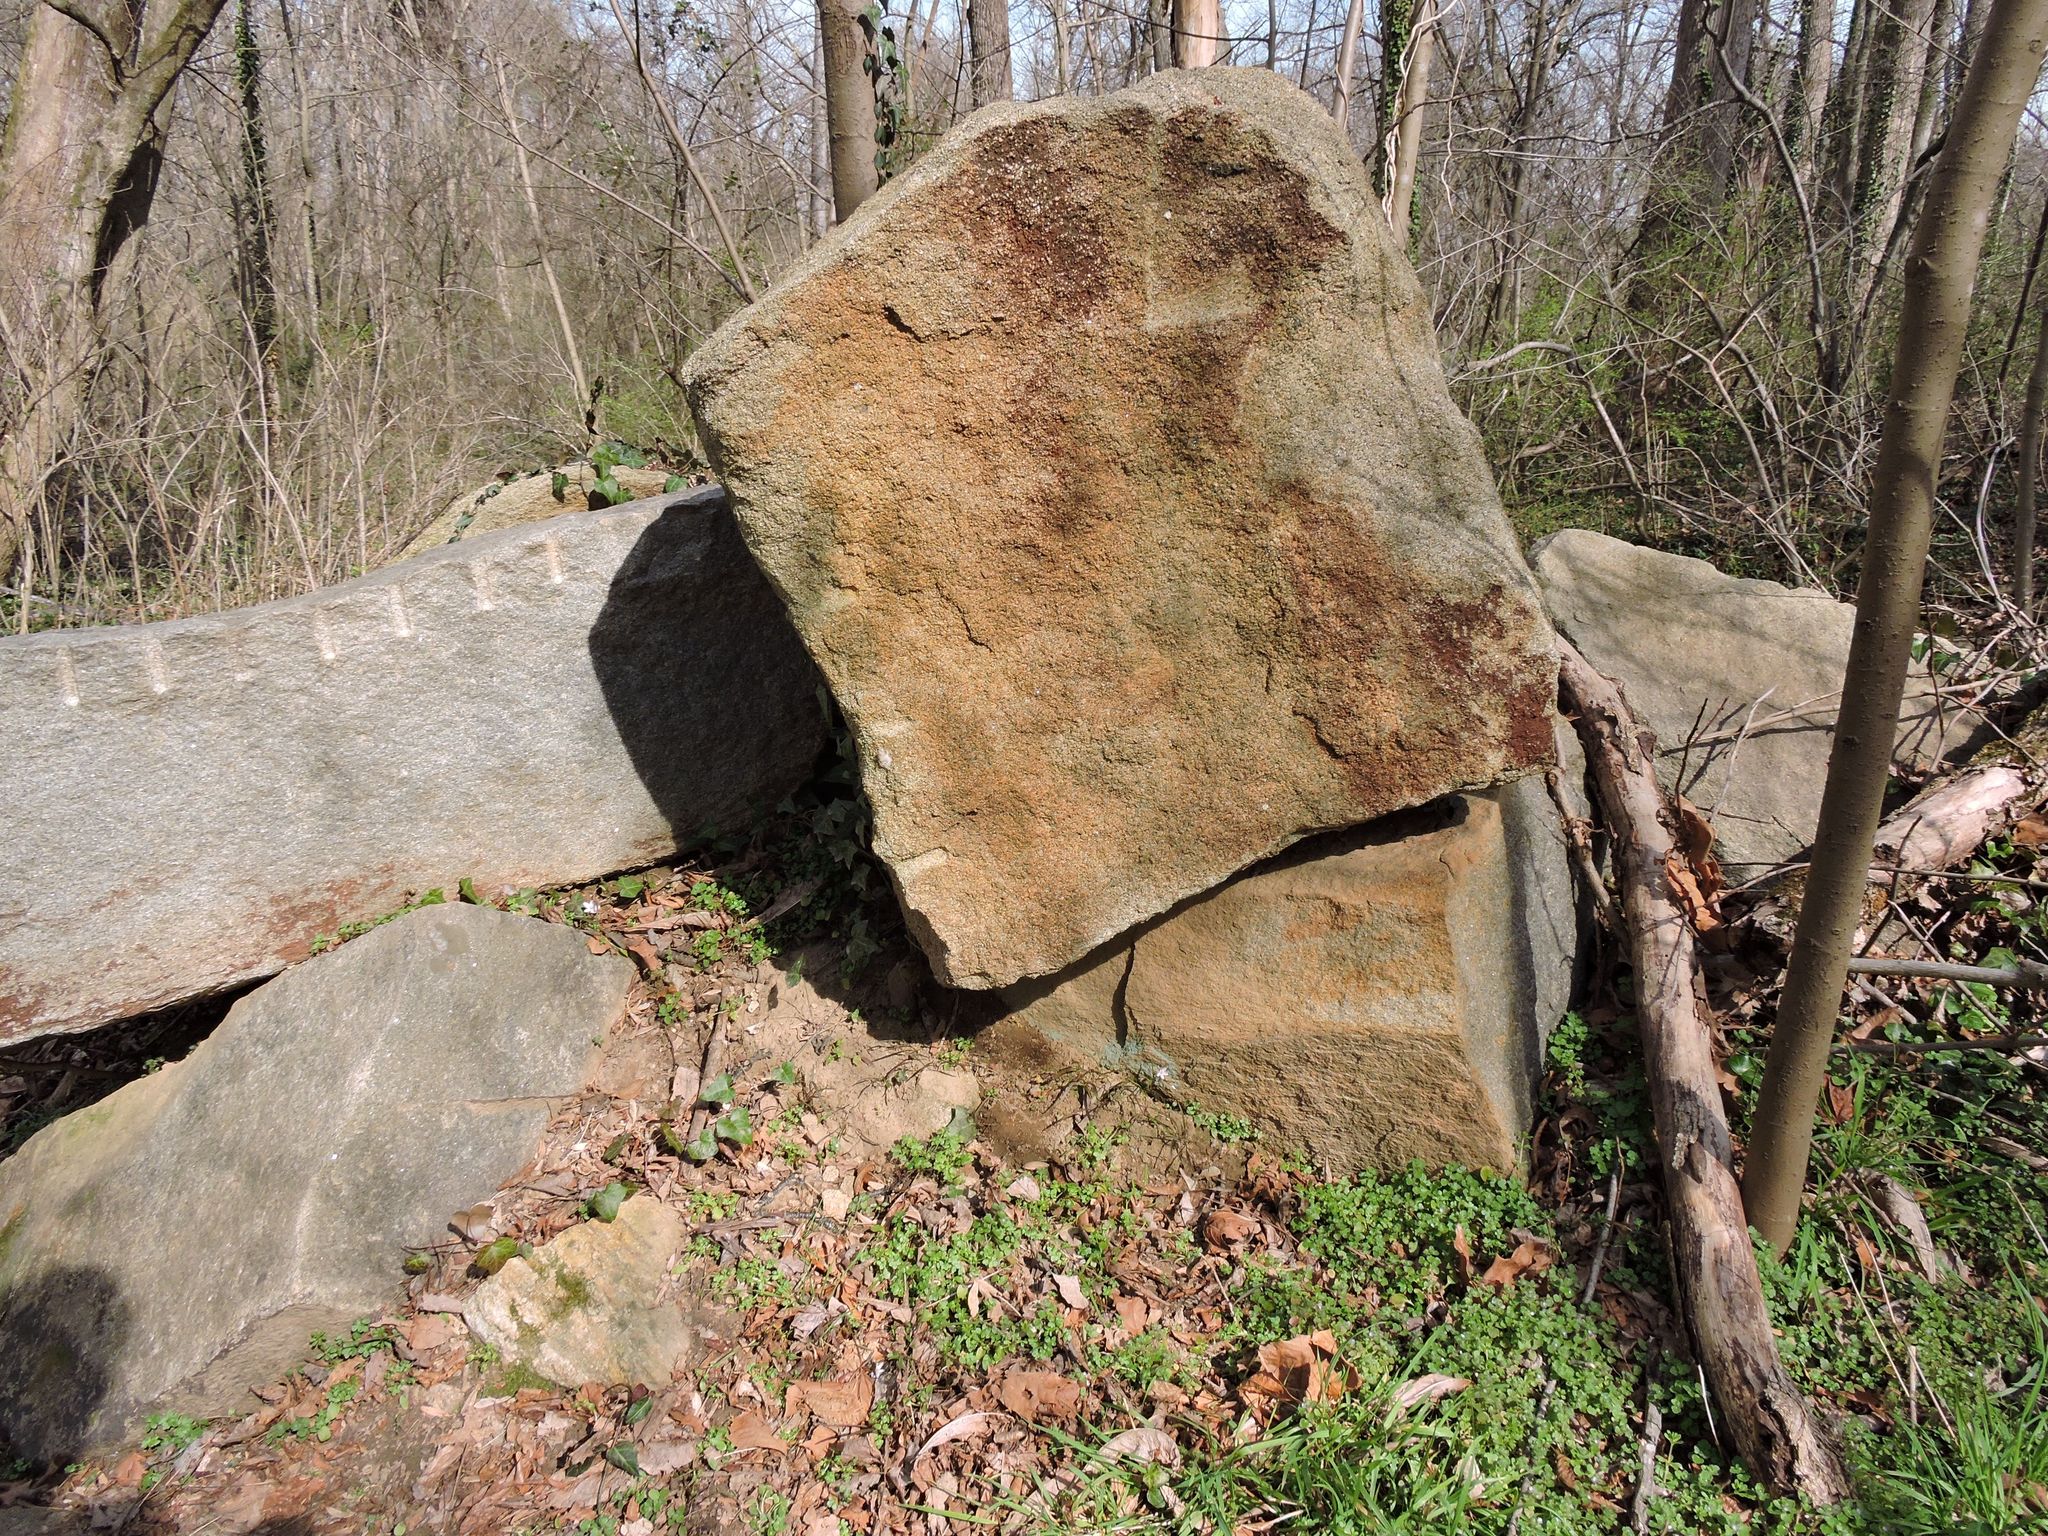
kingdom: Plantae
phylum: Tracheophyta
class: Magnoliopsida
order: Caryophyllales
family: Montiaceae
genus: Claytonia
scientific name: Claytonia virginica
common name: Virginia springbeauty
